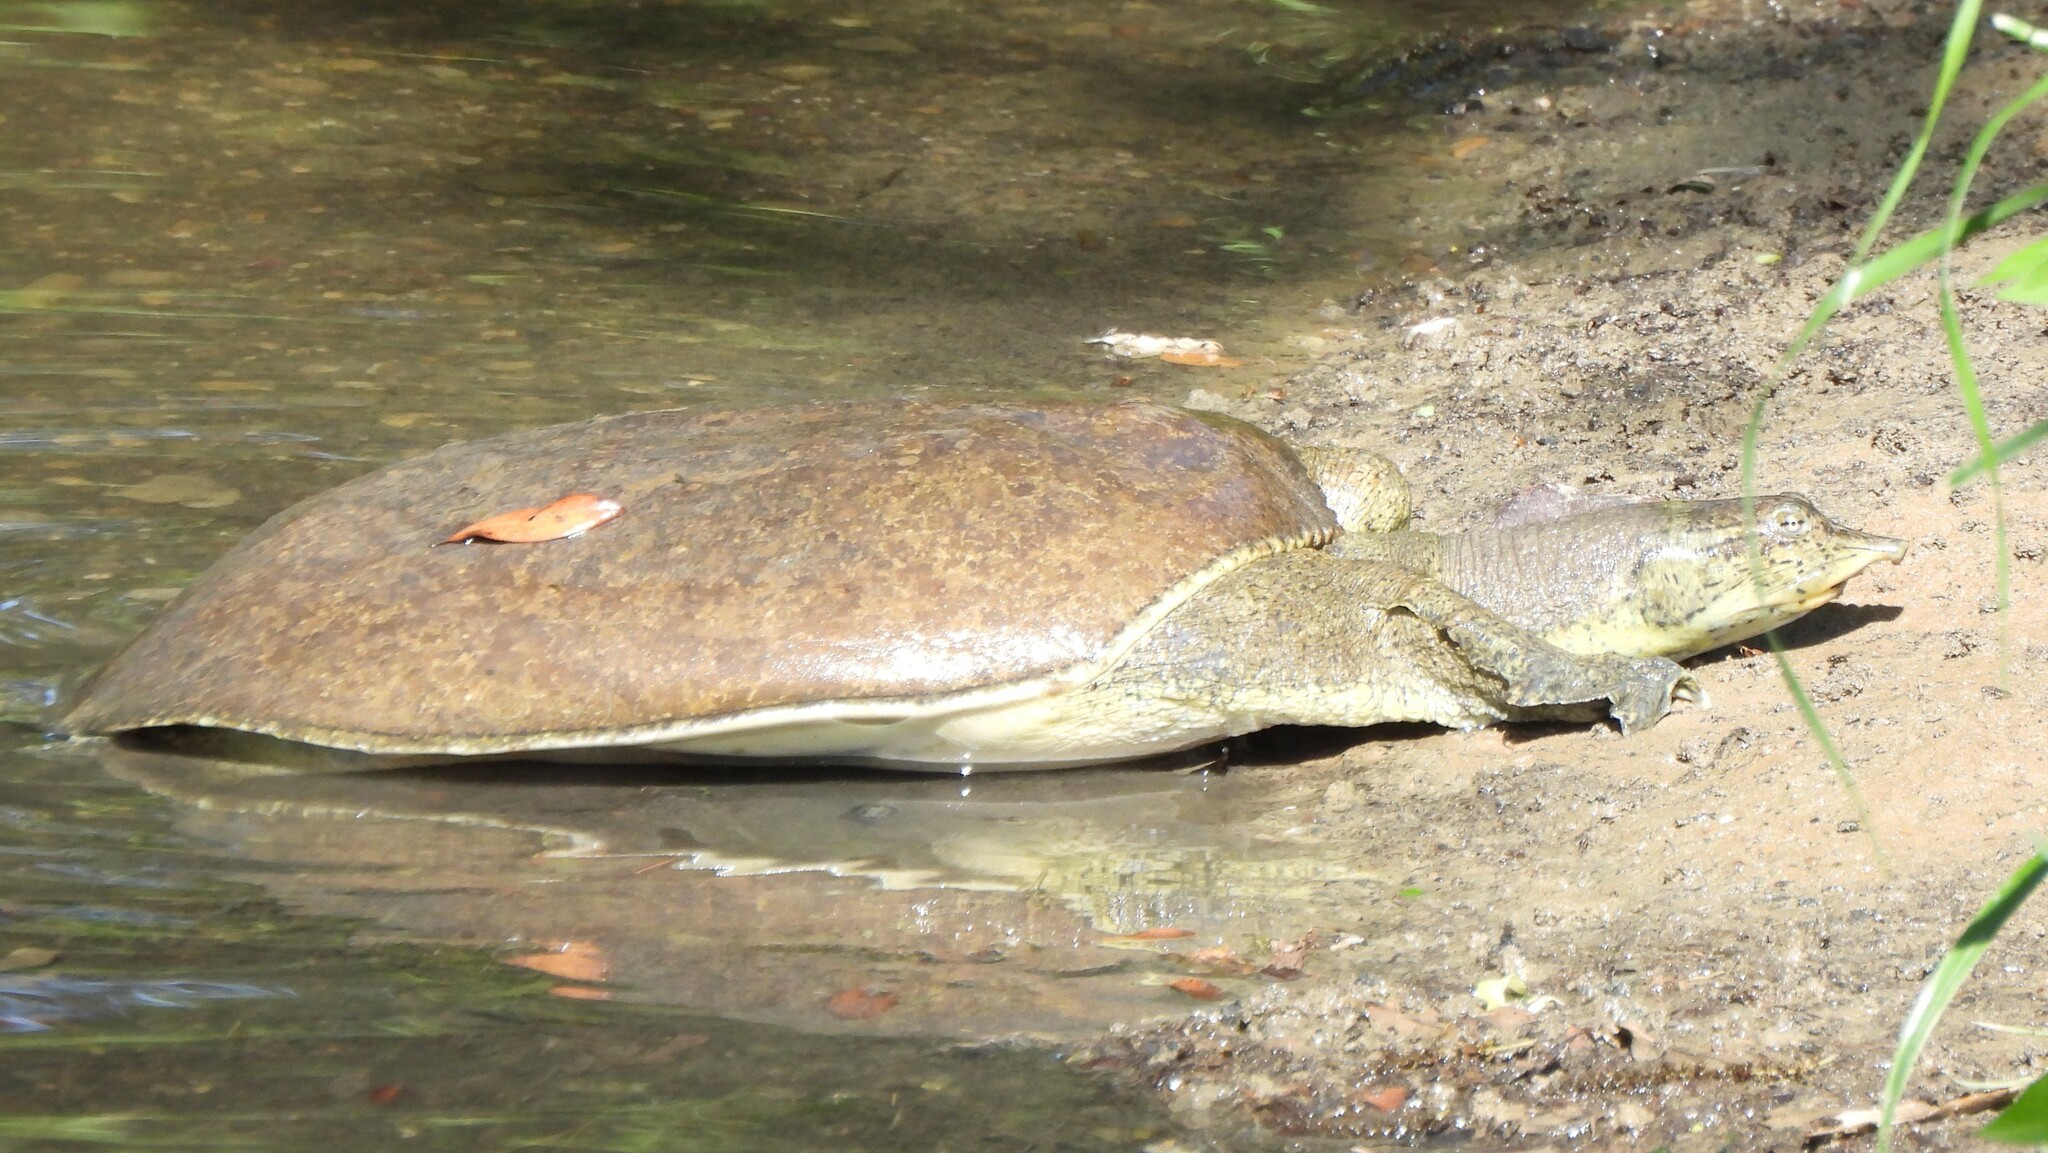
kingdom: Animalia
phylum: Chordata
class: Testudines
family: Trionychidae
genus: Apalone
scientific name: Apalone spinifera
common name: Spiny softshell turtle
